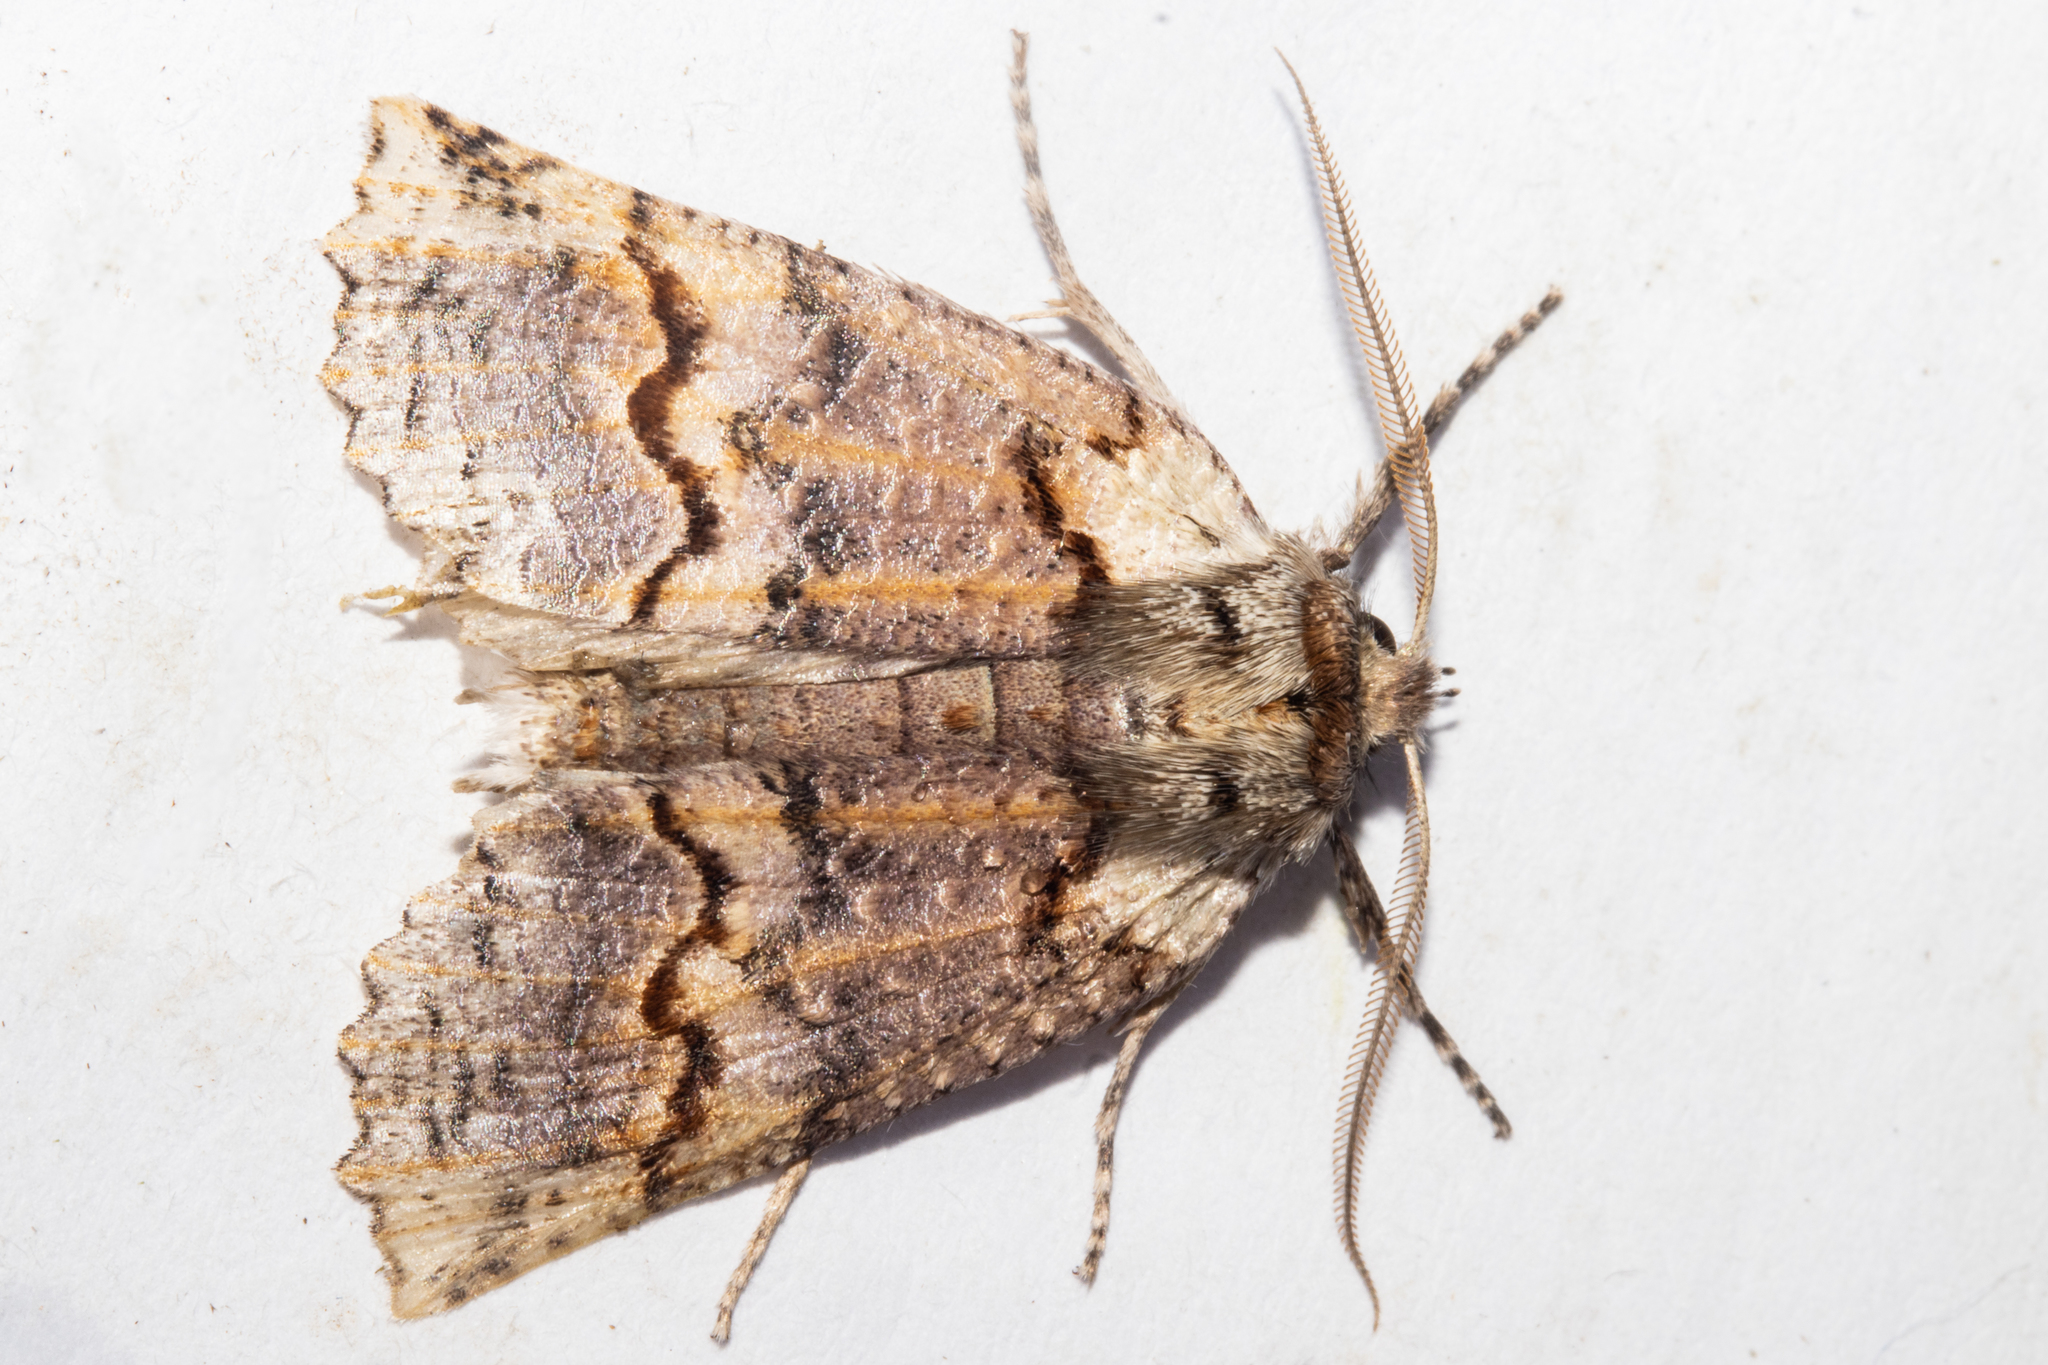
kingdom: Animalia
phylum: Arthropoda
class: Insecta
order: Lepidoptera
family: Geometridae
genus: Declana
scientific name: Declana floccosa
